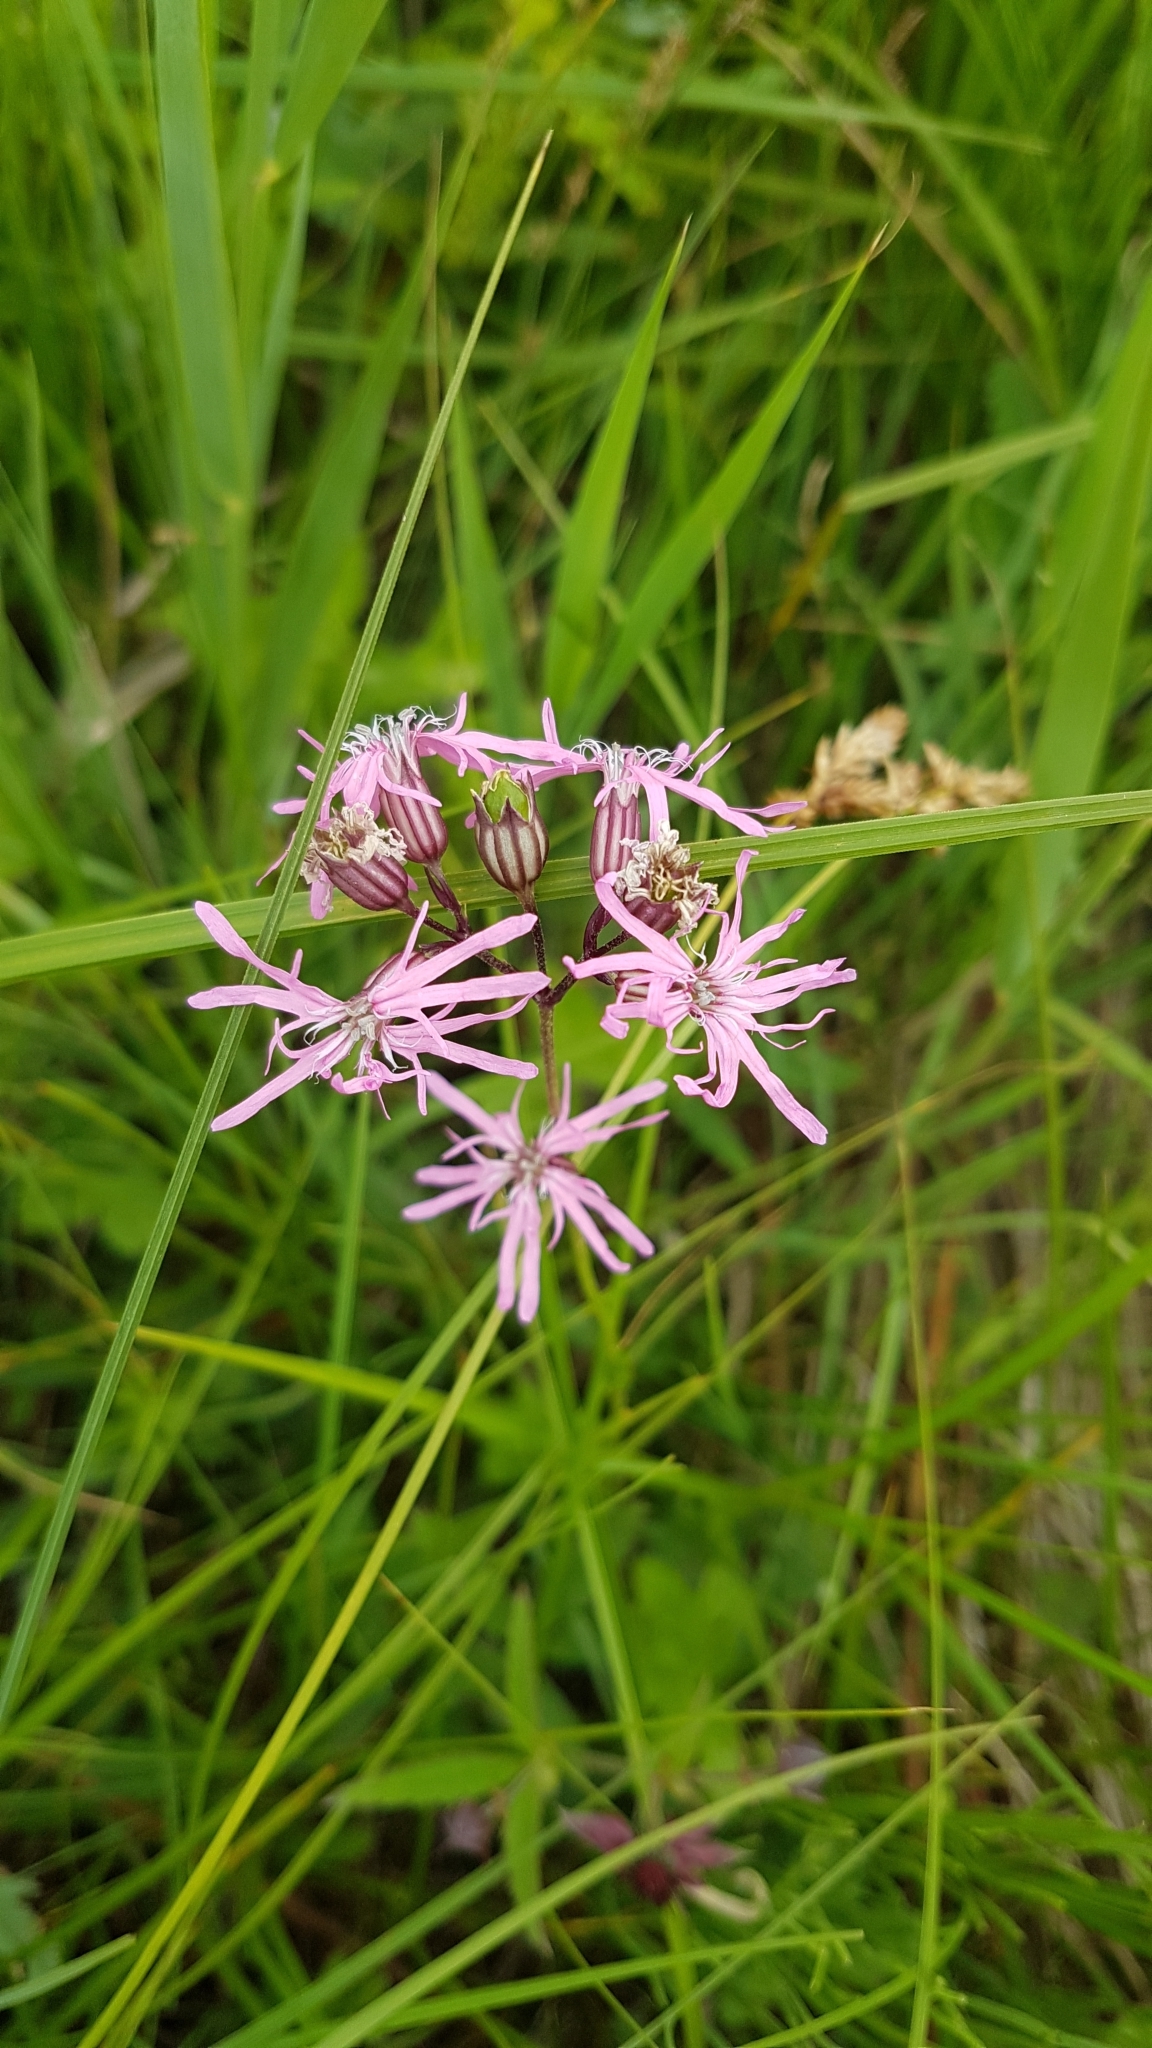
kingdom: Plantae
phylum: Tracheophyta
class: Magnoliopsida
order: Caryophyllales
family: Caryophyllaceae
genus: Silene
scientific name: Silene flos-cuculi
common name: Ragged-robin
